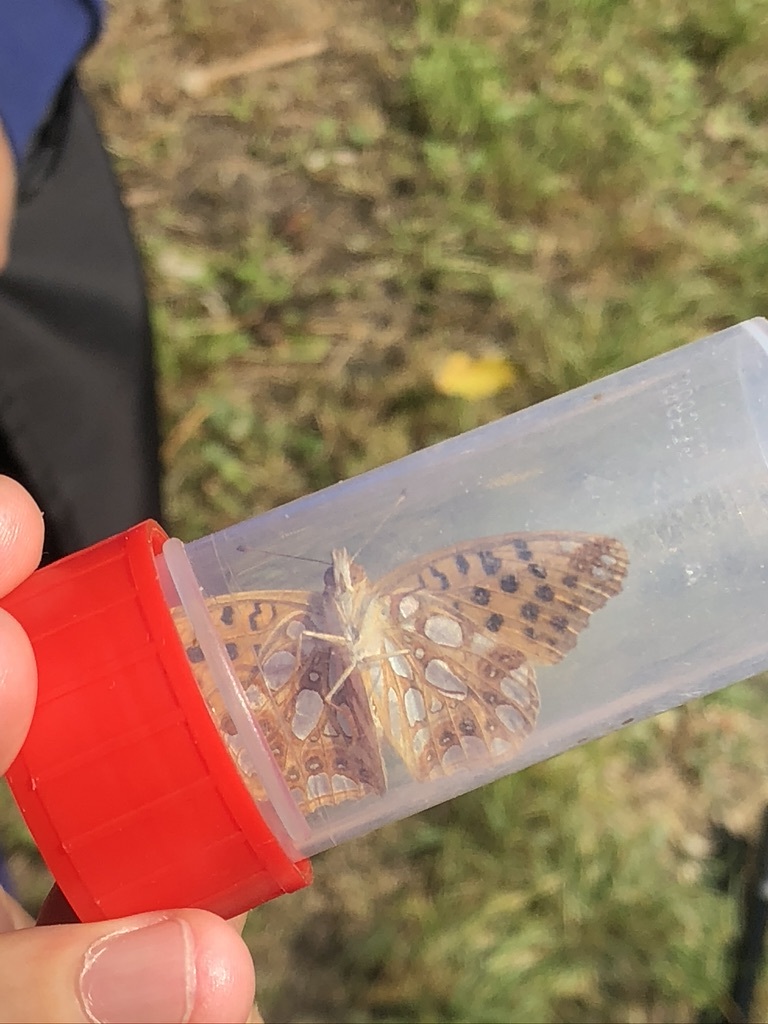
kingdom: Animalia
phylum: Arthropoda
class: Insecta
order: Lepidoptera
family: Nymphalidae
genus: Issoria
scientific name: Issoria lathonia
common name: Queen of spain fritillary
